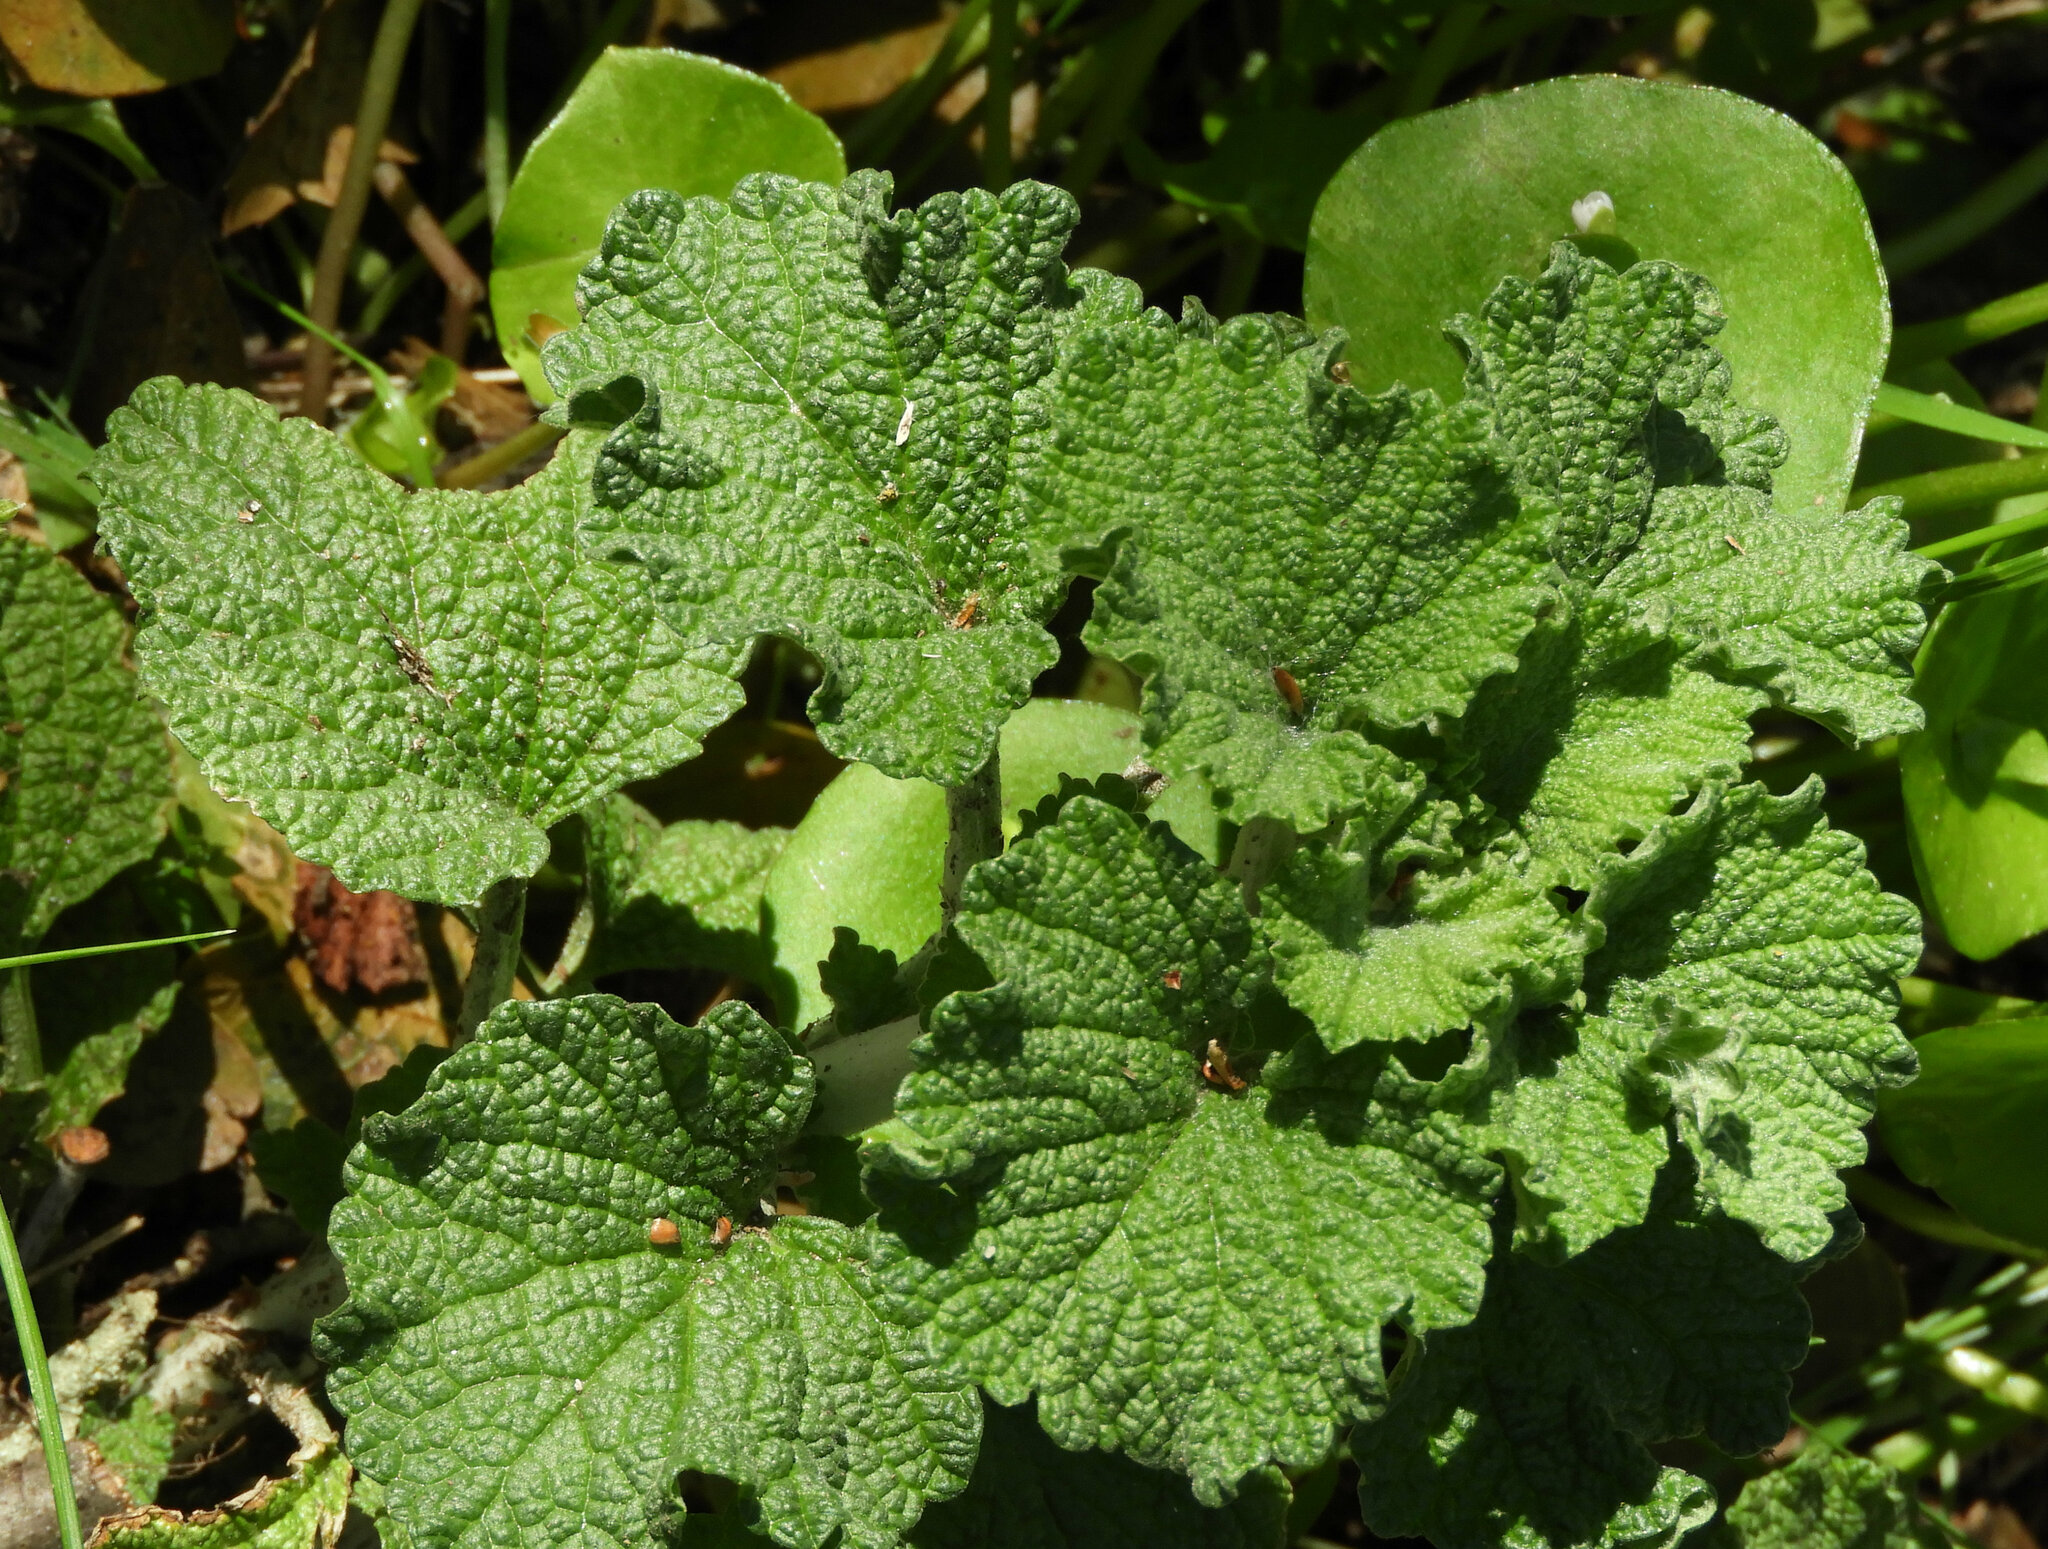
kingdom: Plantae
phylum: Tracheophyta
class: Magnoliopsida
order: Lamiales
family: Lamiaceae
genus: Marrubium
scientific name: Marrubium vulgare
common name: Horehound
